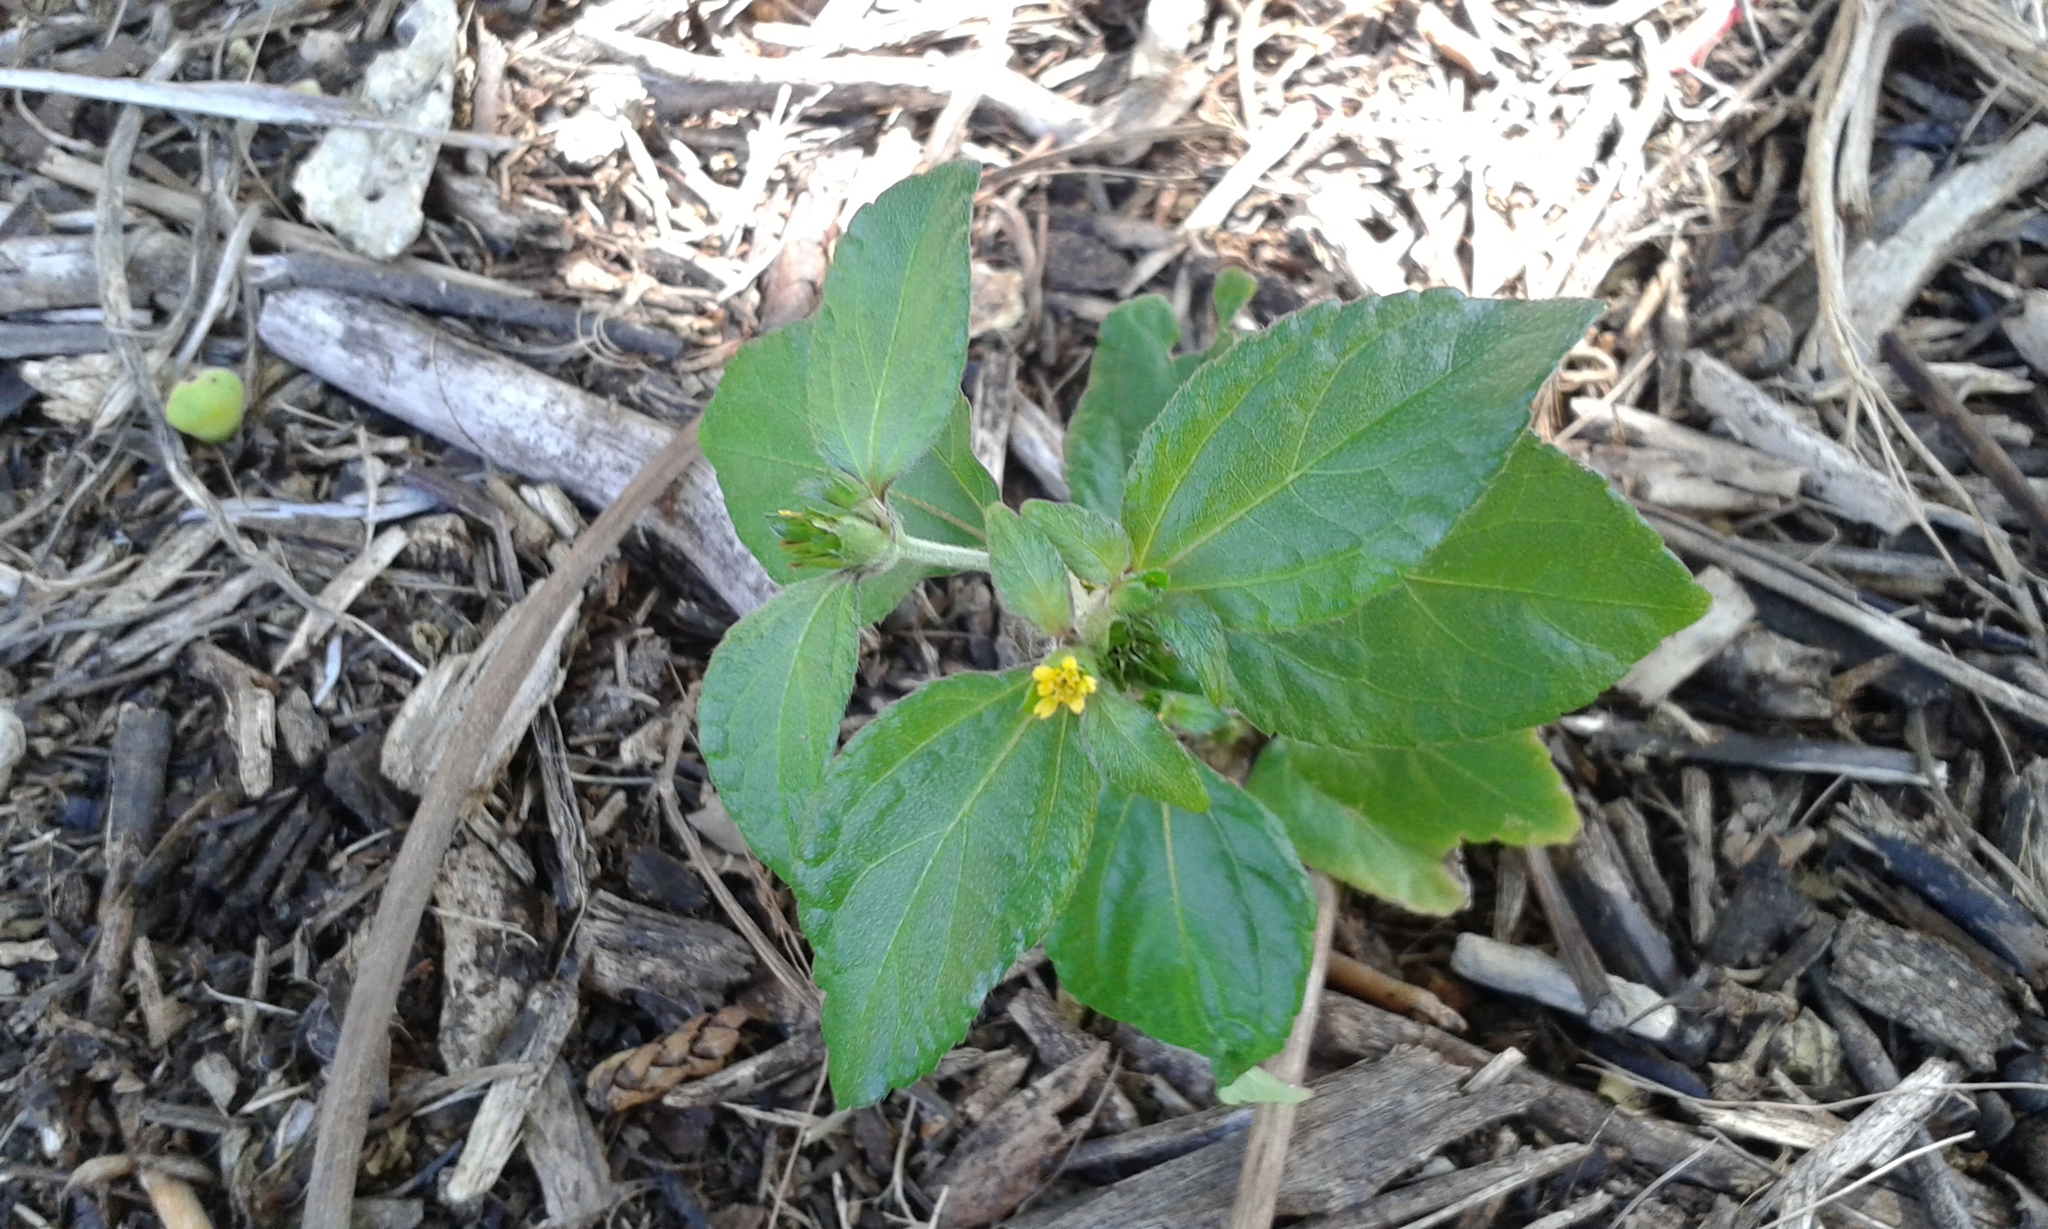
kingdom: Plantae
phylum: Tracheophyta
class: Magnoliopsida
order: Asterales
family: Asteraceae
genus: Synedrella
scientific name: Synedrella nodiflora
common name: Nodeweed
